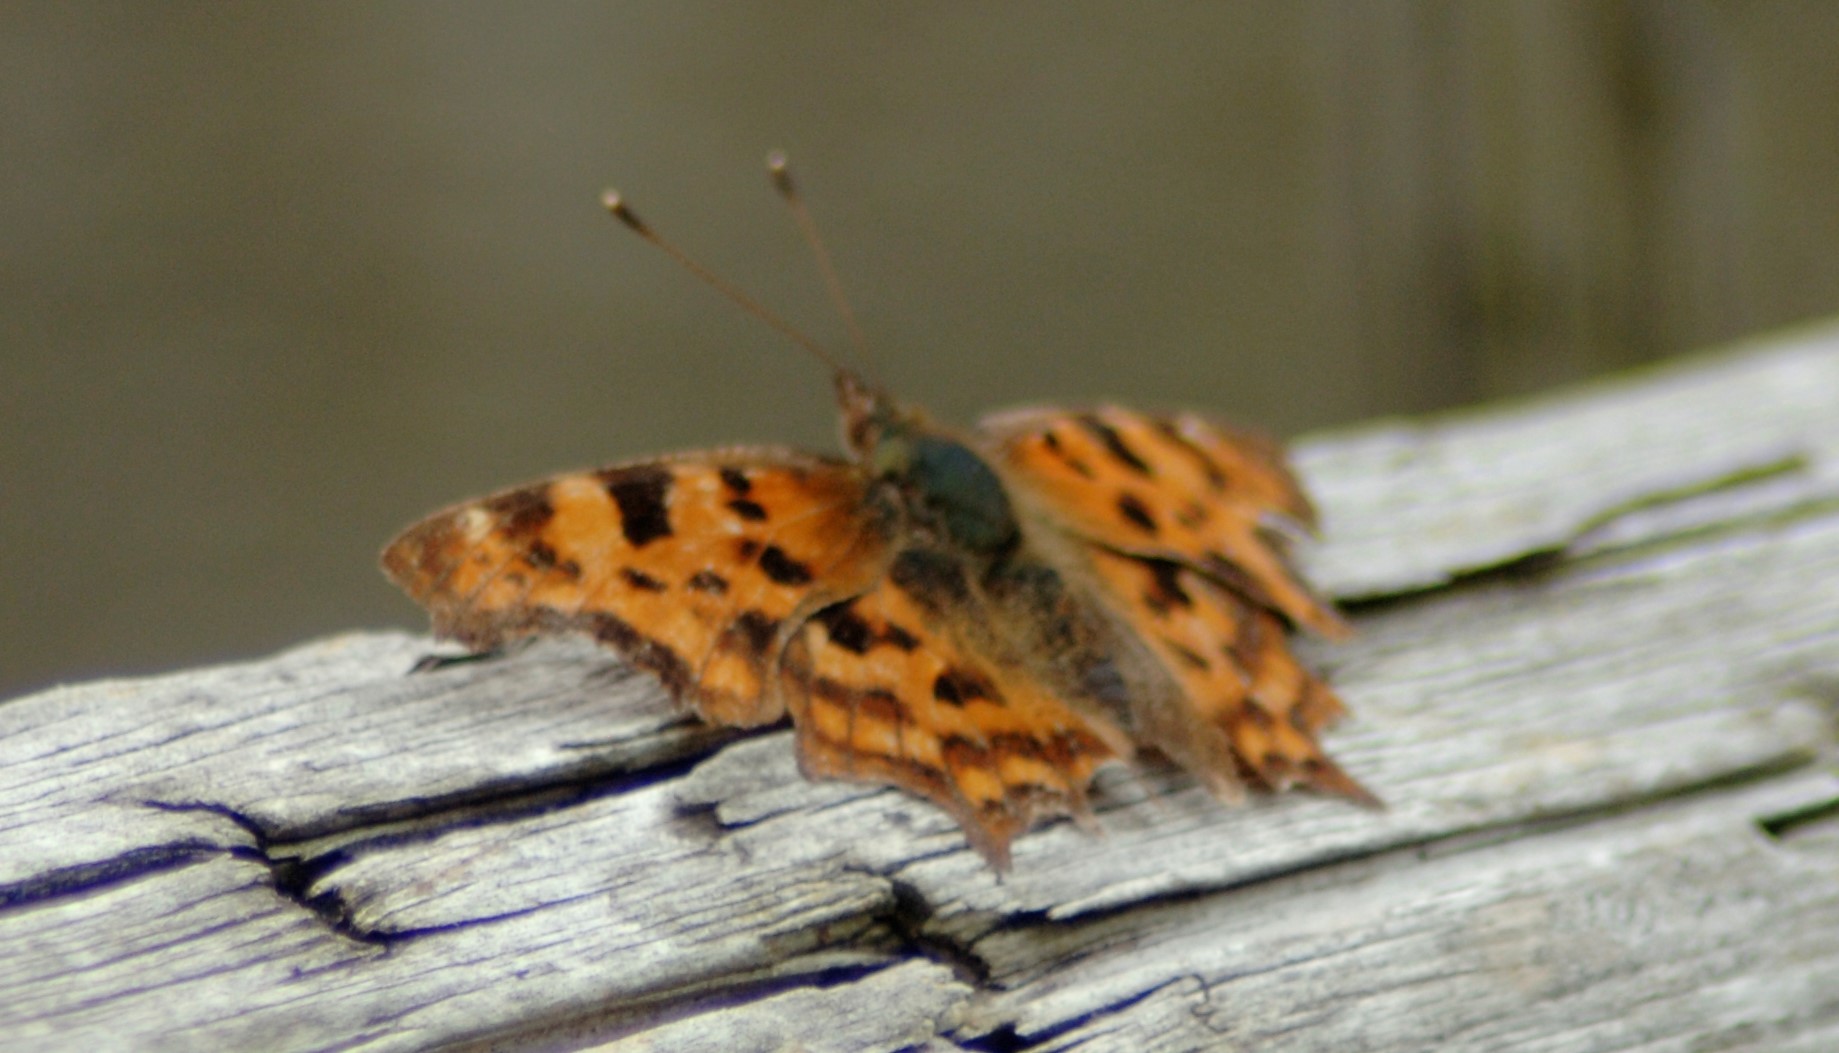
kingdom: Animalia
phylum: Arthropoda
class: Insecta
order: Lepidoptera
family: Nymphalidae
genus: Polygonia
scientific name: Polygonia c-album
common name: Comma
